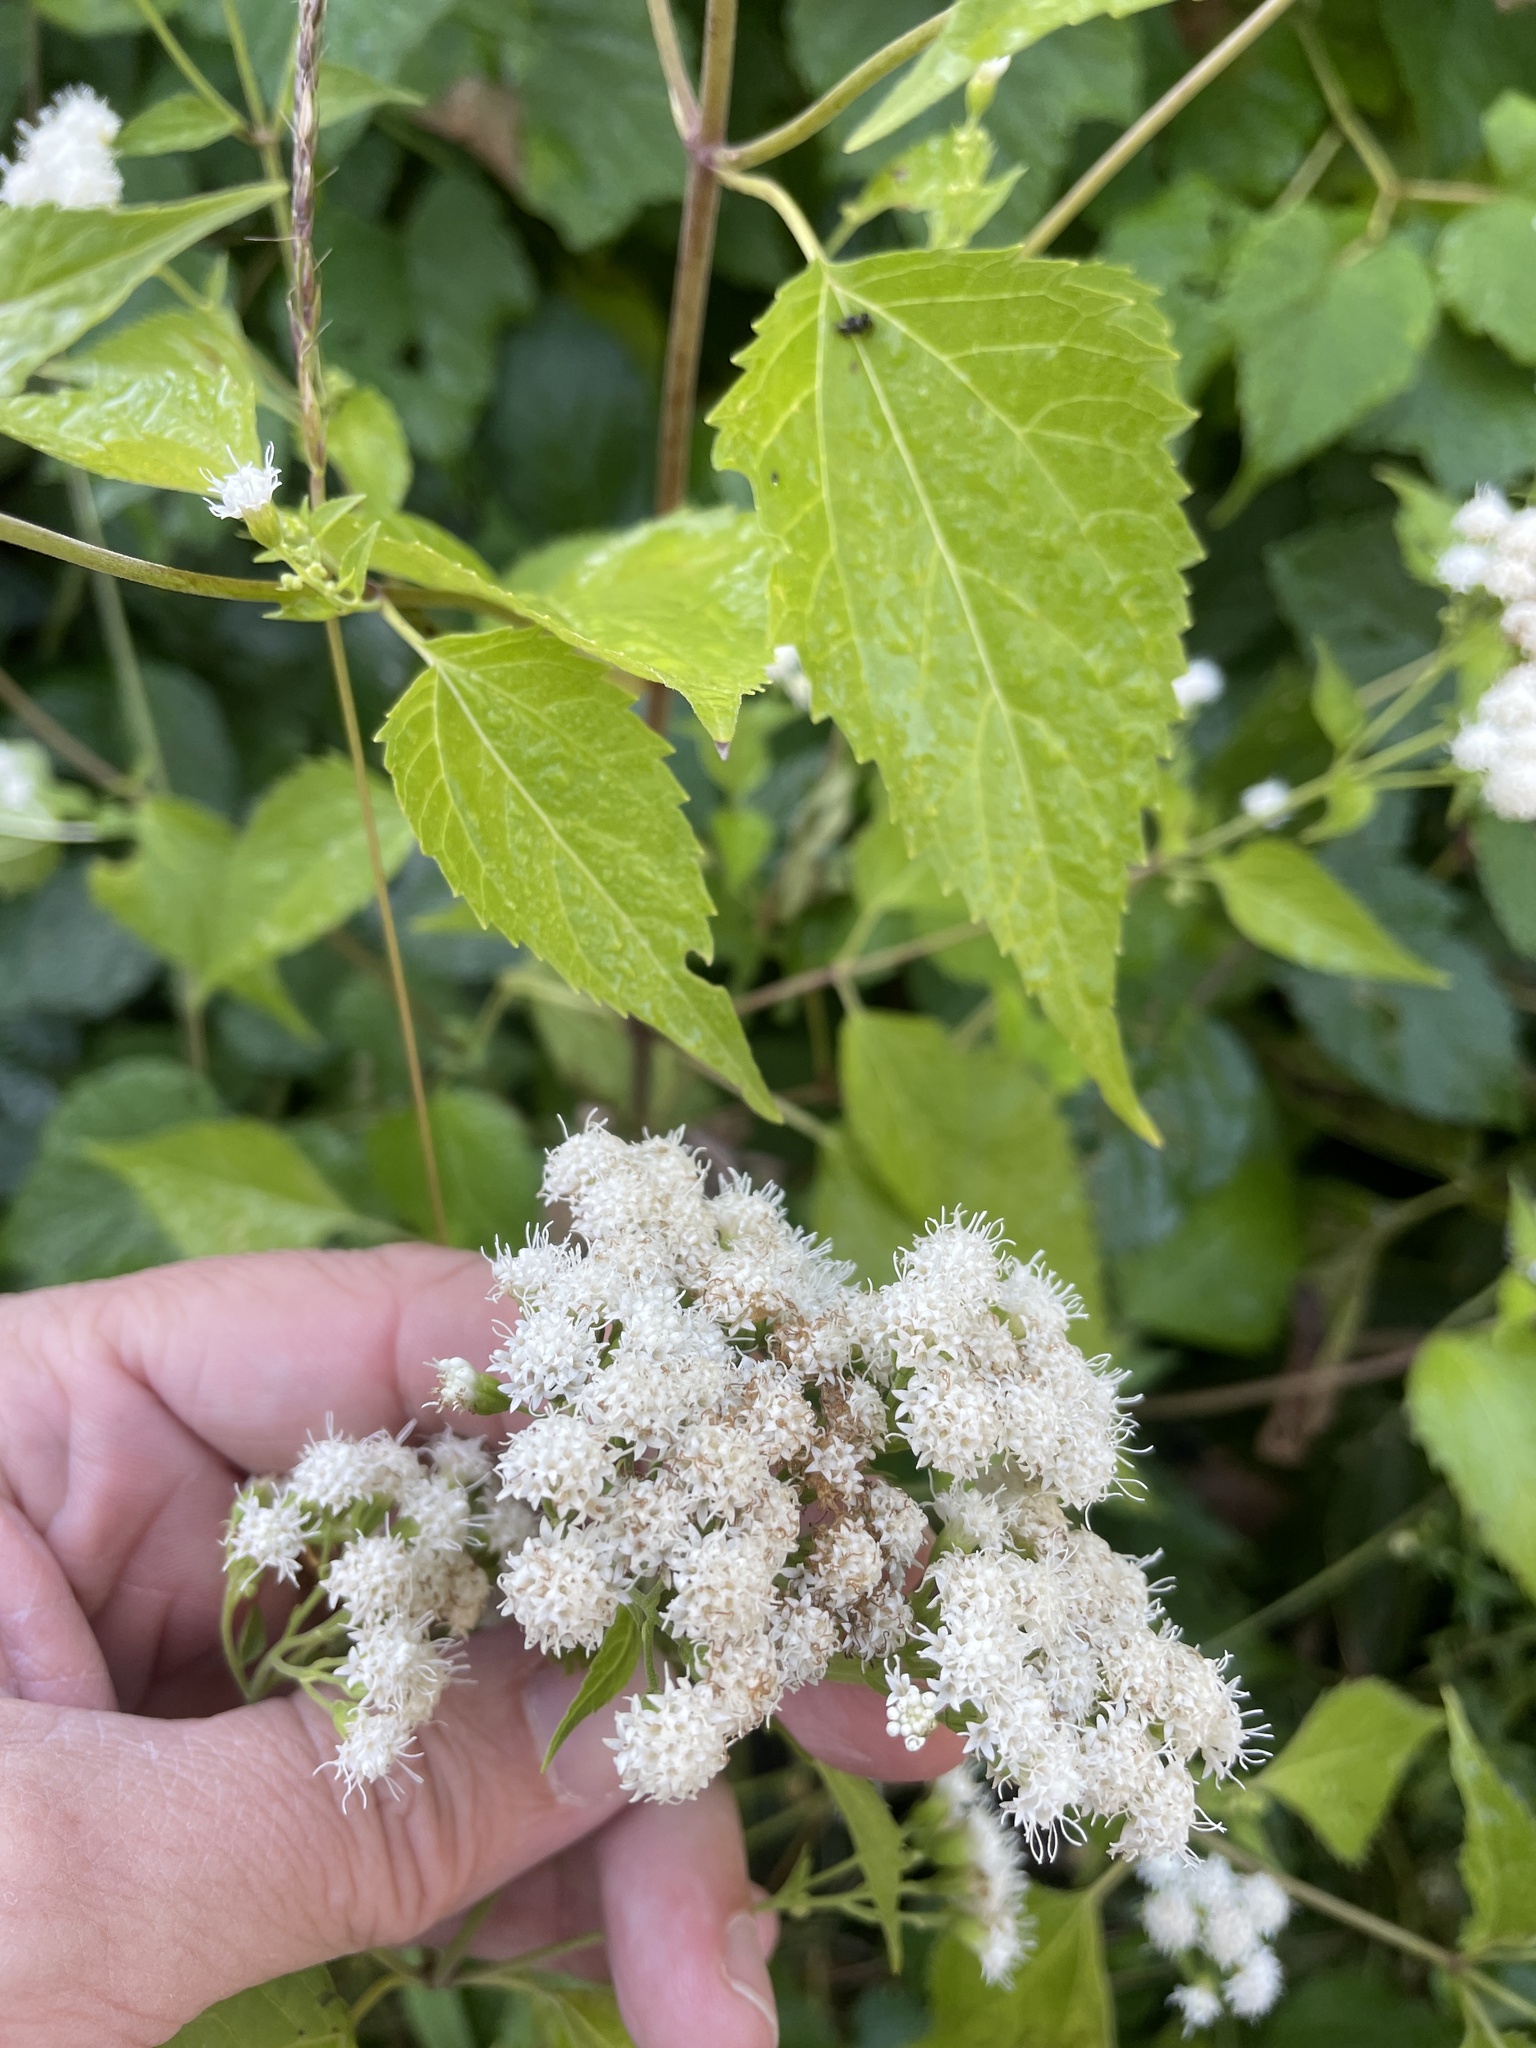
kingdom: Plantae
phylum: Tracheophyta
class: Magnoliopsida
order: Asterales
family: Asteraceae
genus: Ageratina
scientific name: Ageratina altissima
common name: White snakeroot
